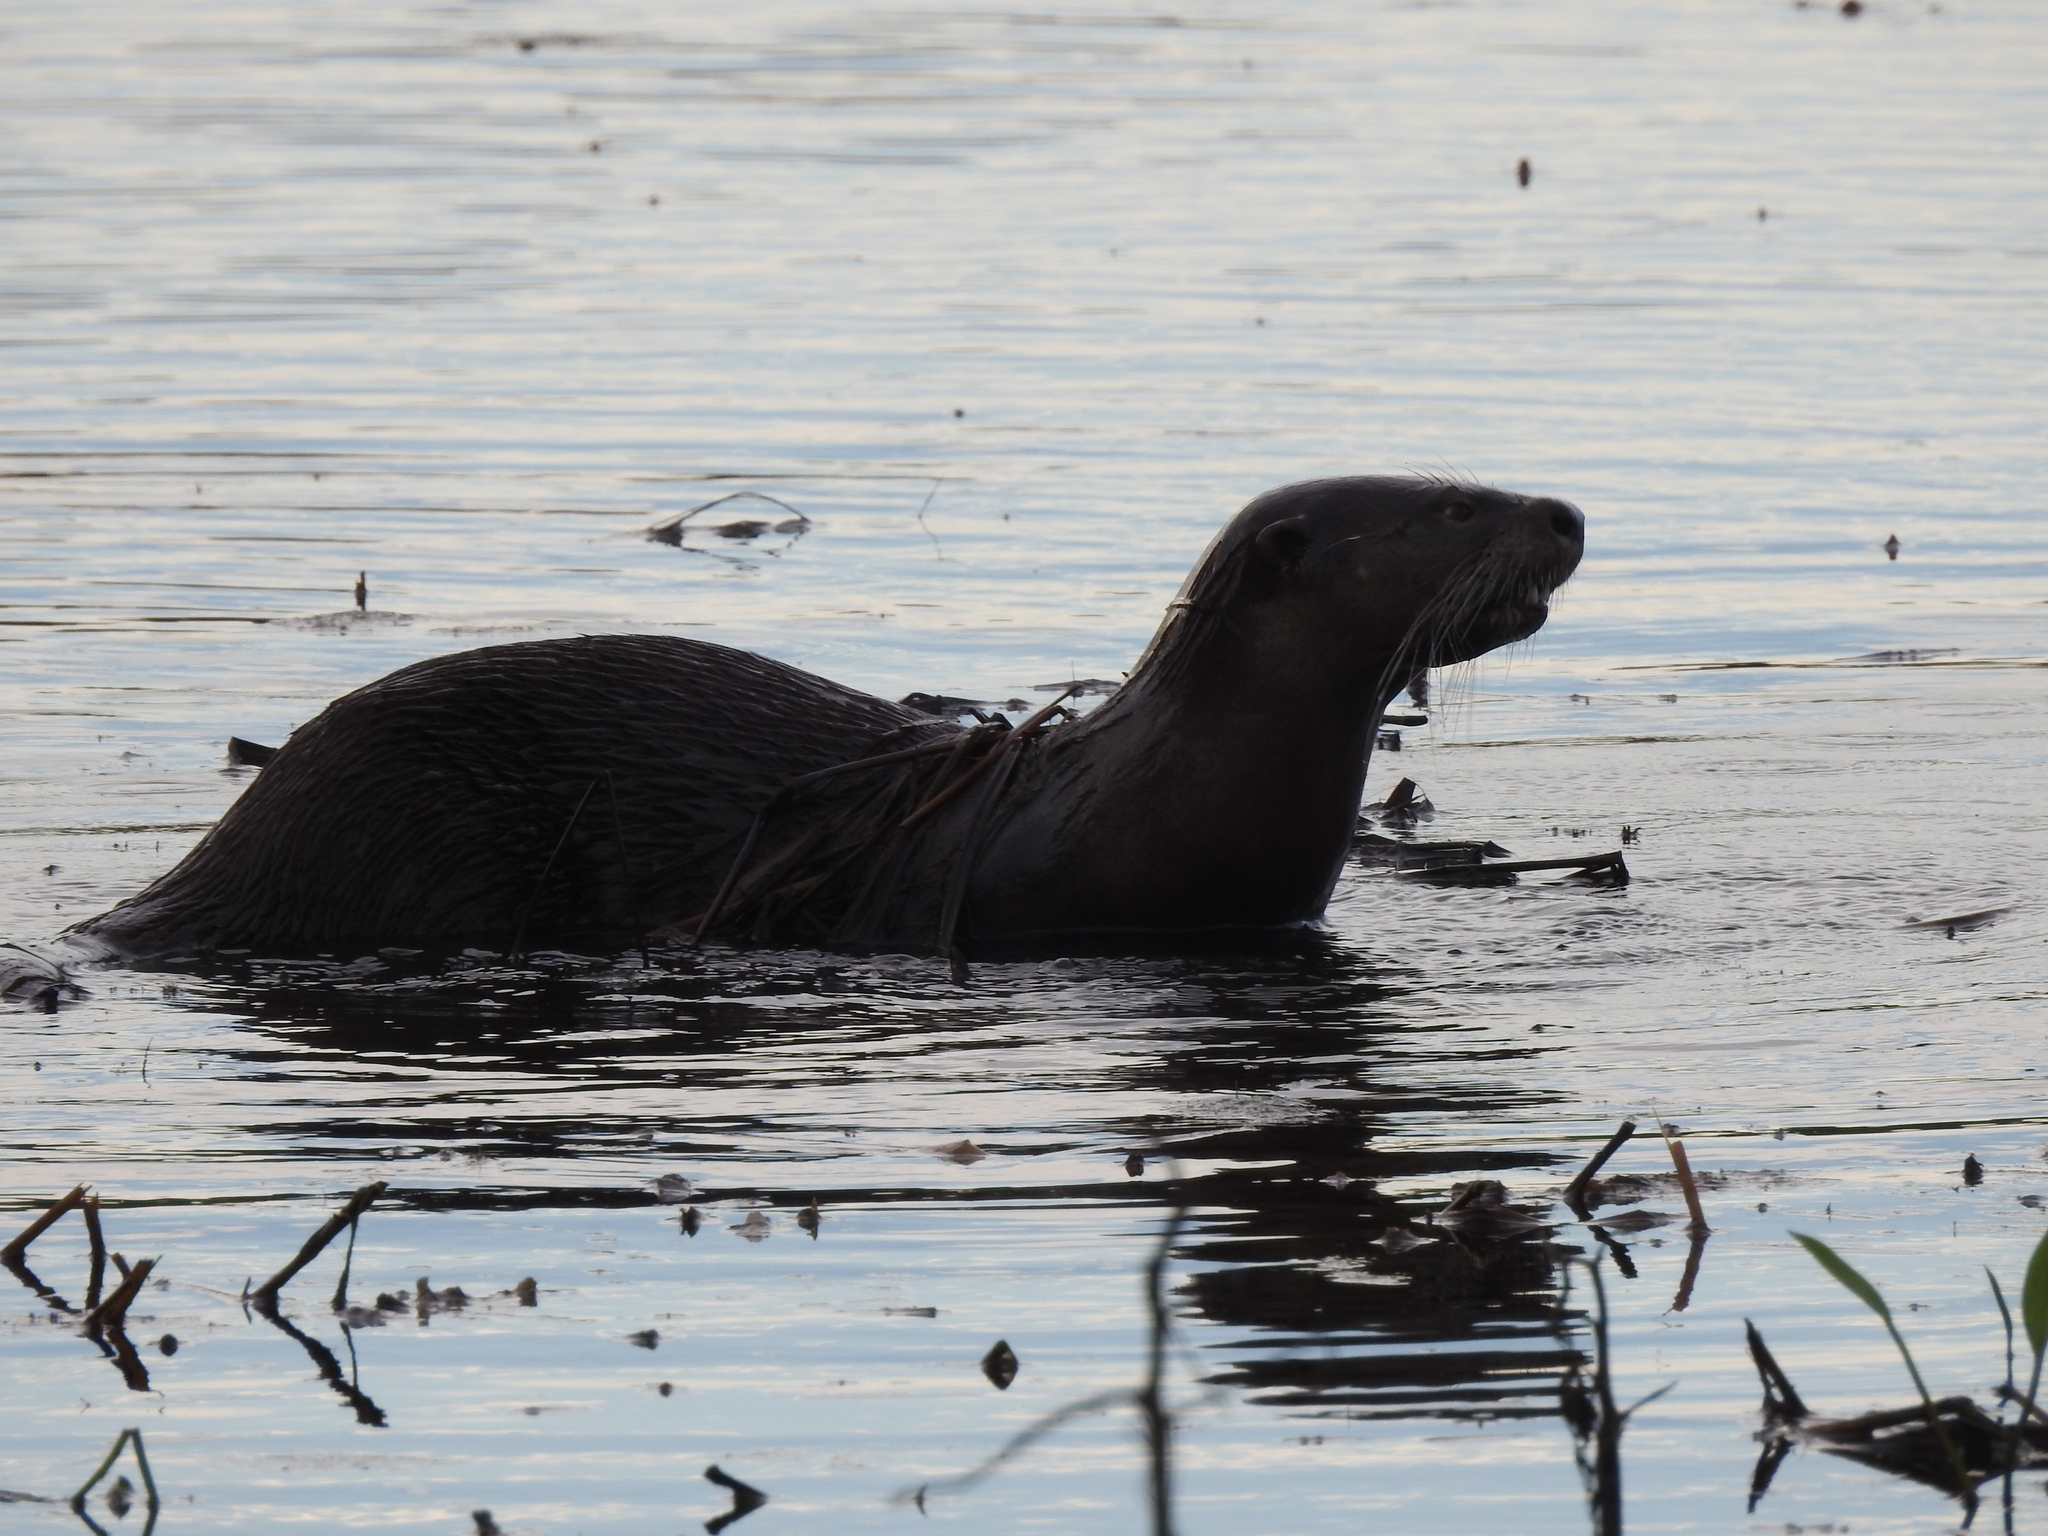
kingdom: Animalia
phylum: Chordata
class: Mammalia
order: Carnivora
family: Mustelidae
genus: Lontra
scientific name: Lontra canadensis
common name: North american river otter
